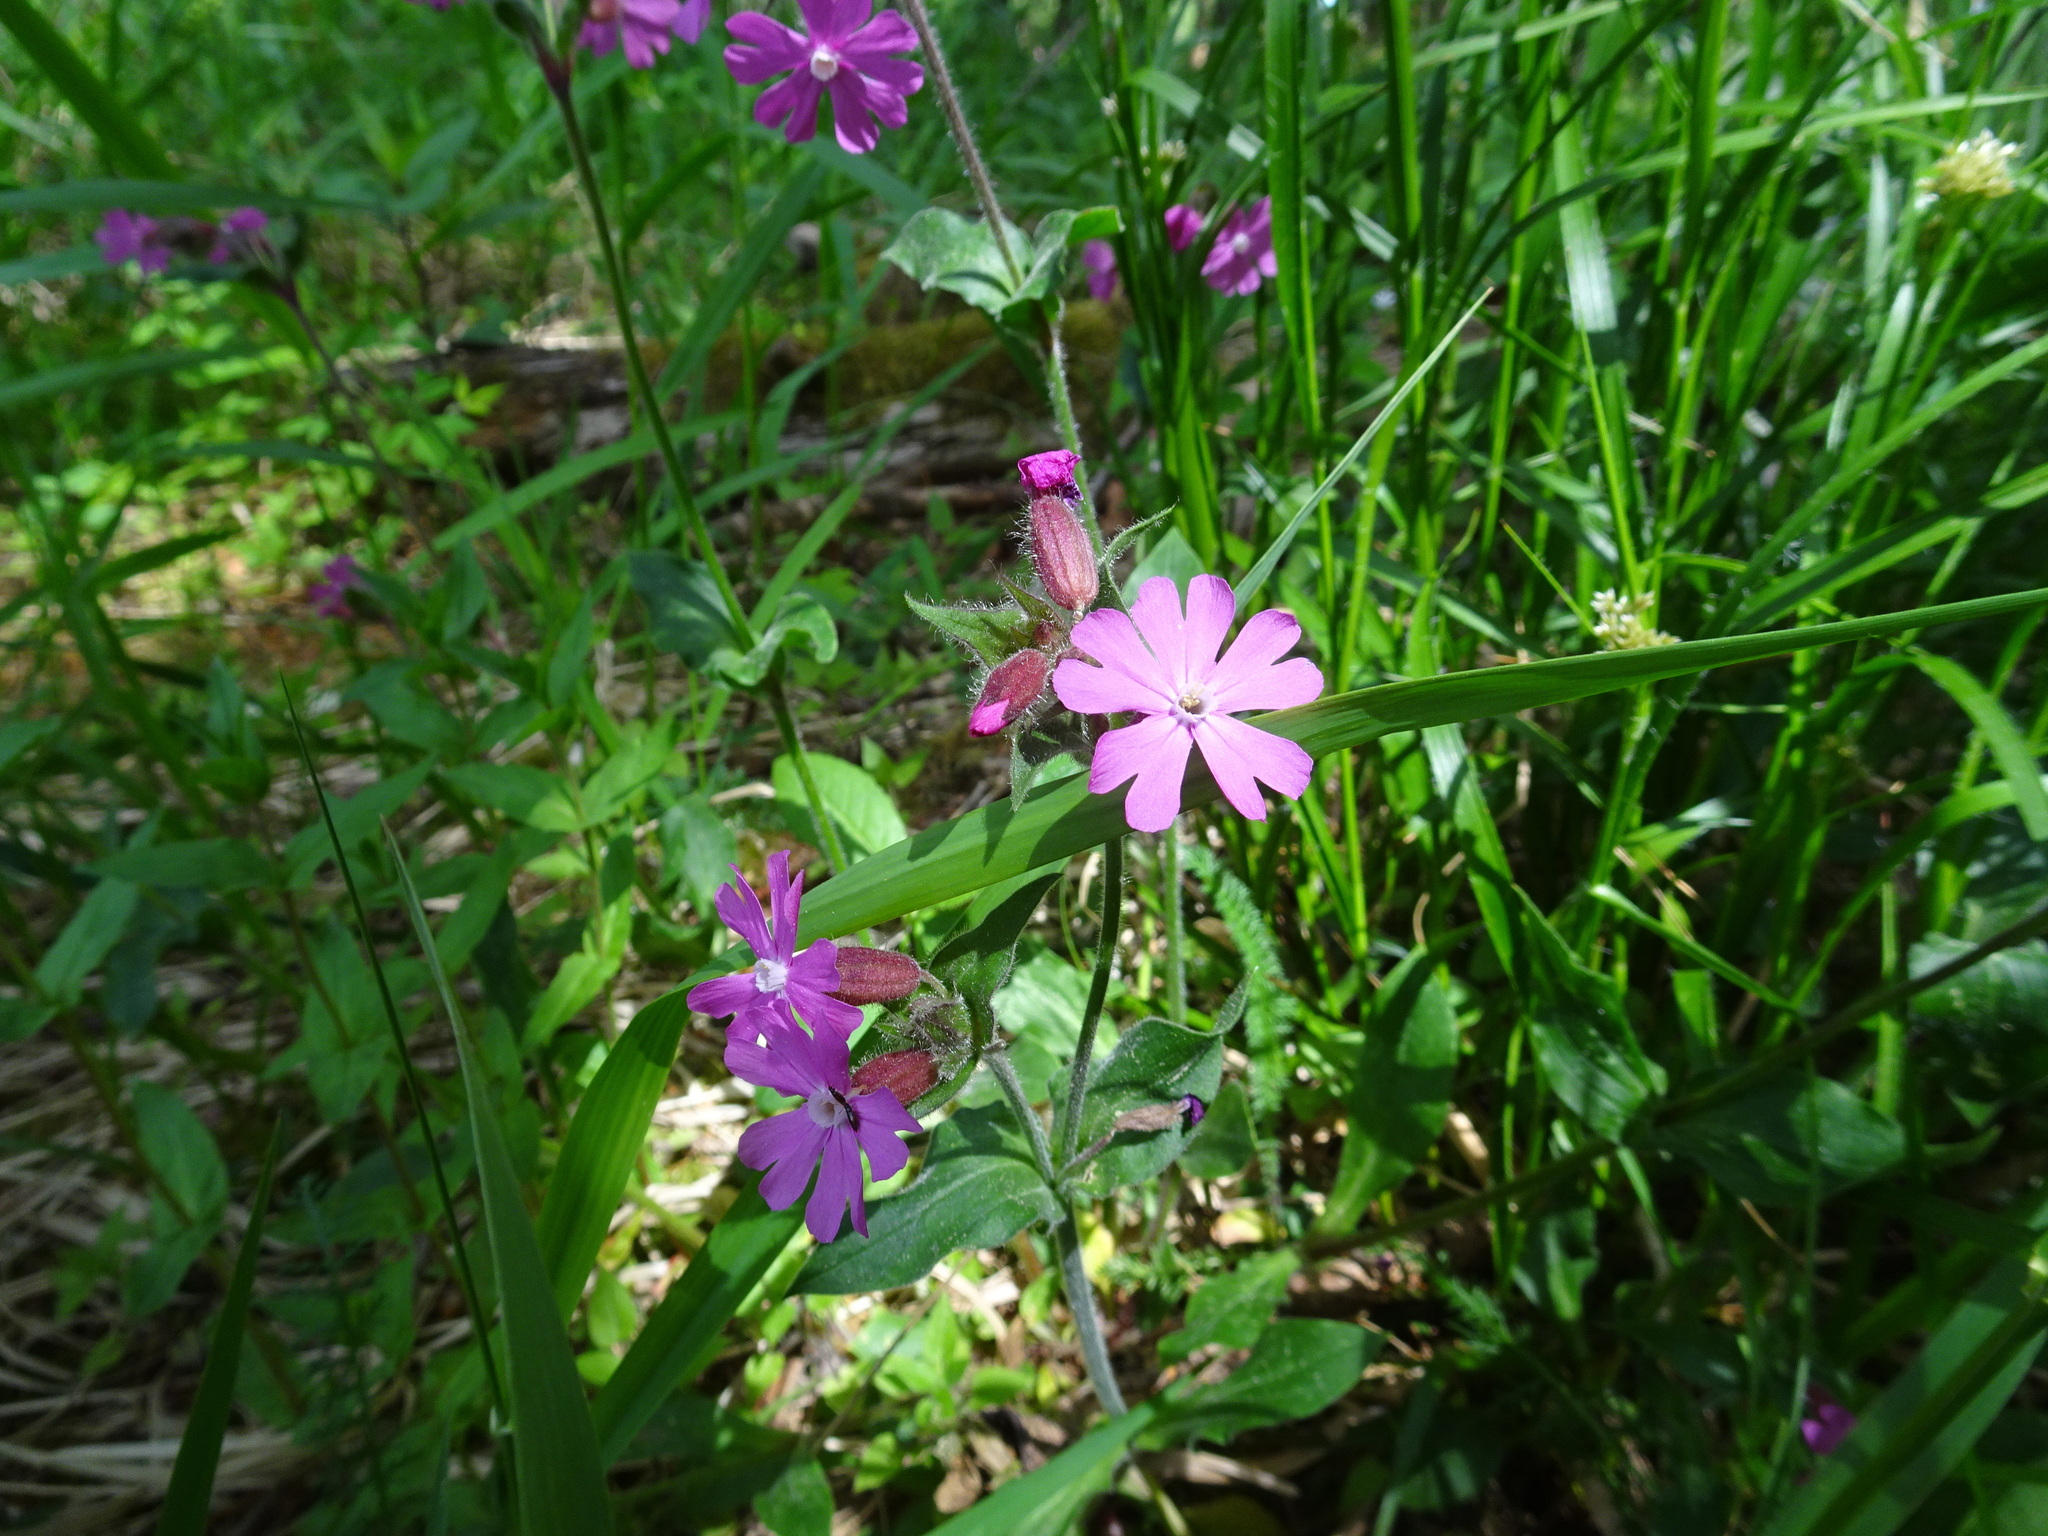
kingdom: Plantae
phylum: Tracheophyta
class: Magnoliopsida
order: Caryophyllales
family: Caryophyllaceae
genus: Silene
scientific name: Silene dioica
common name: Red campion
